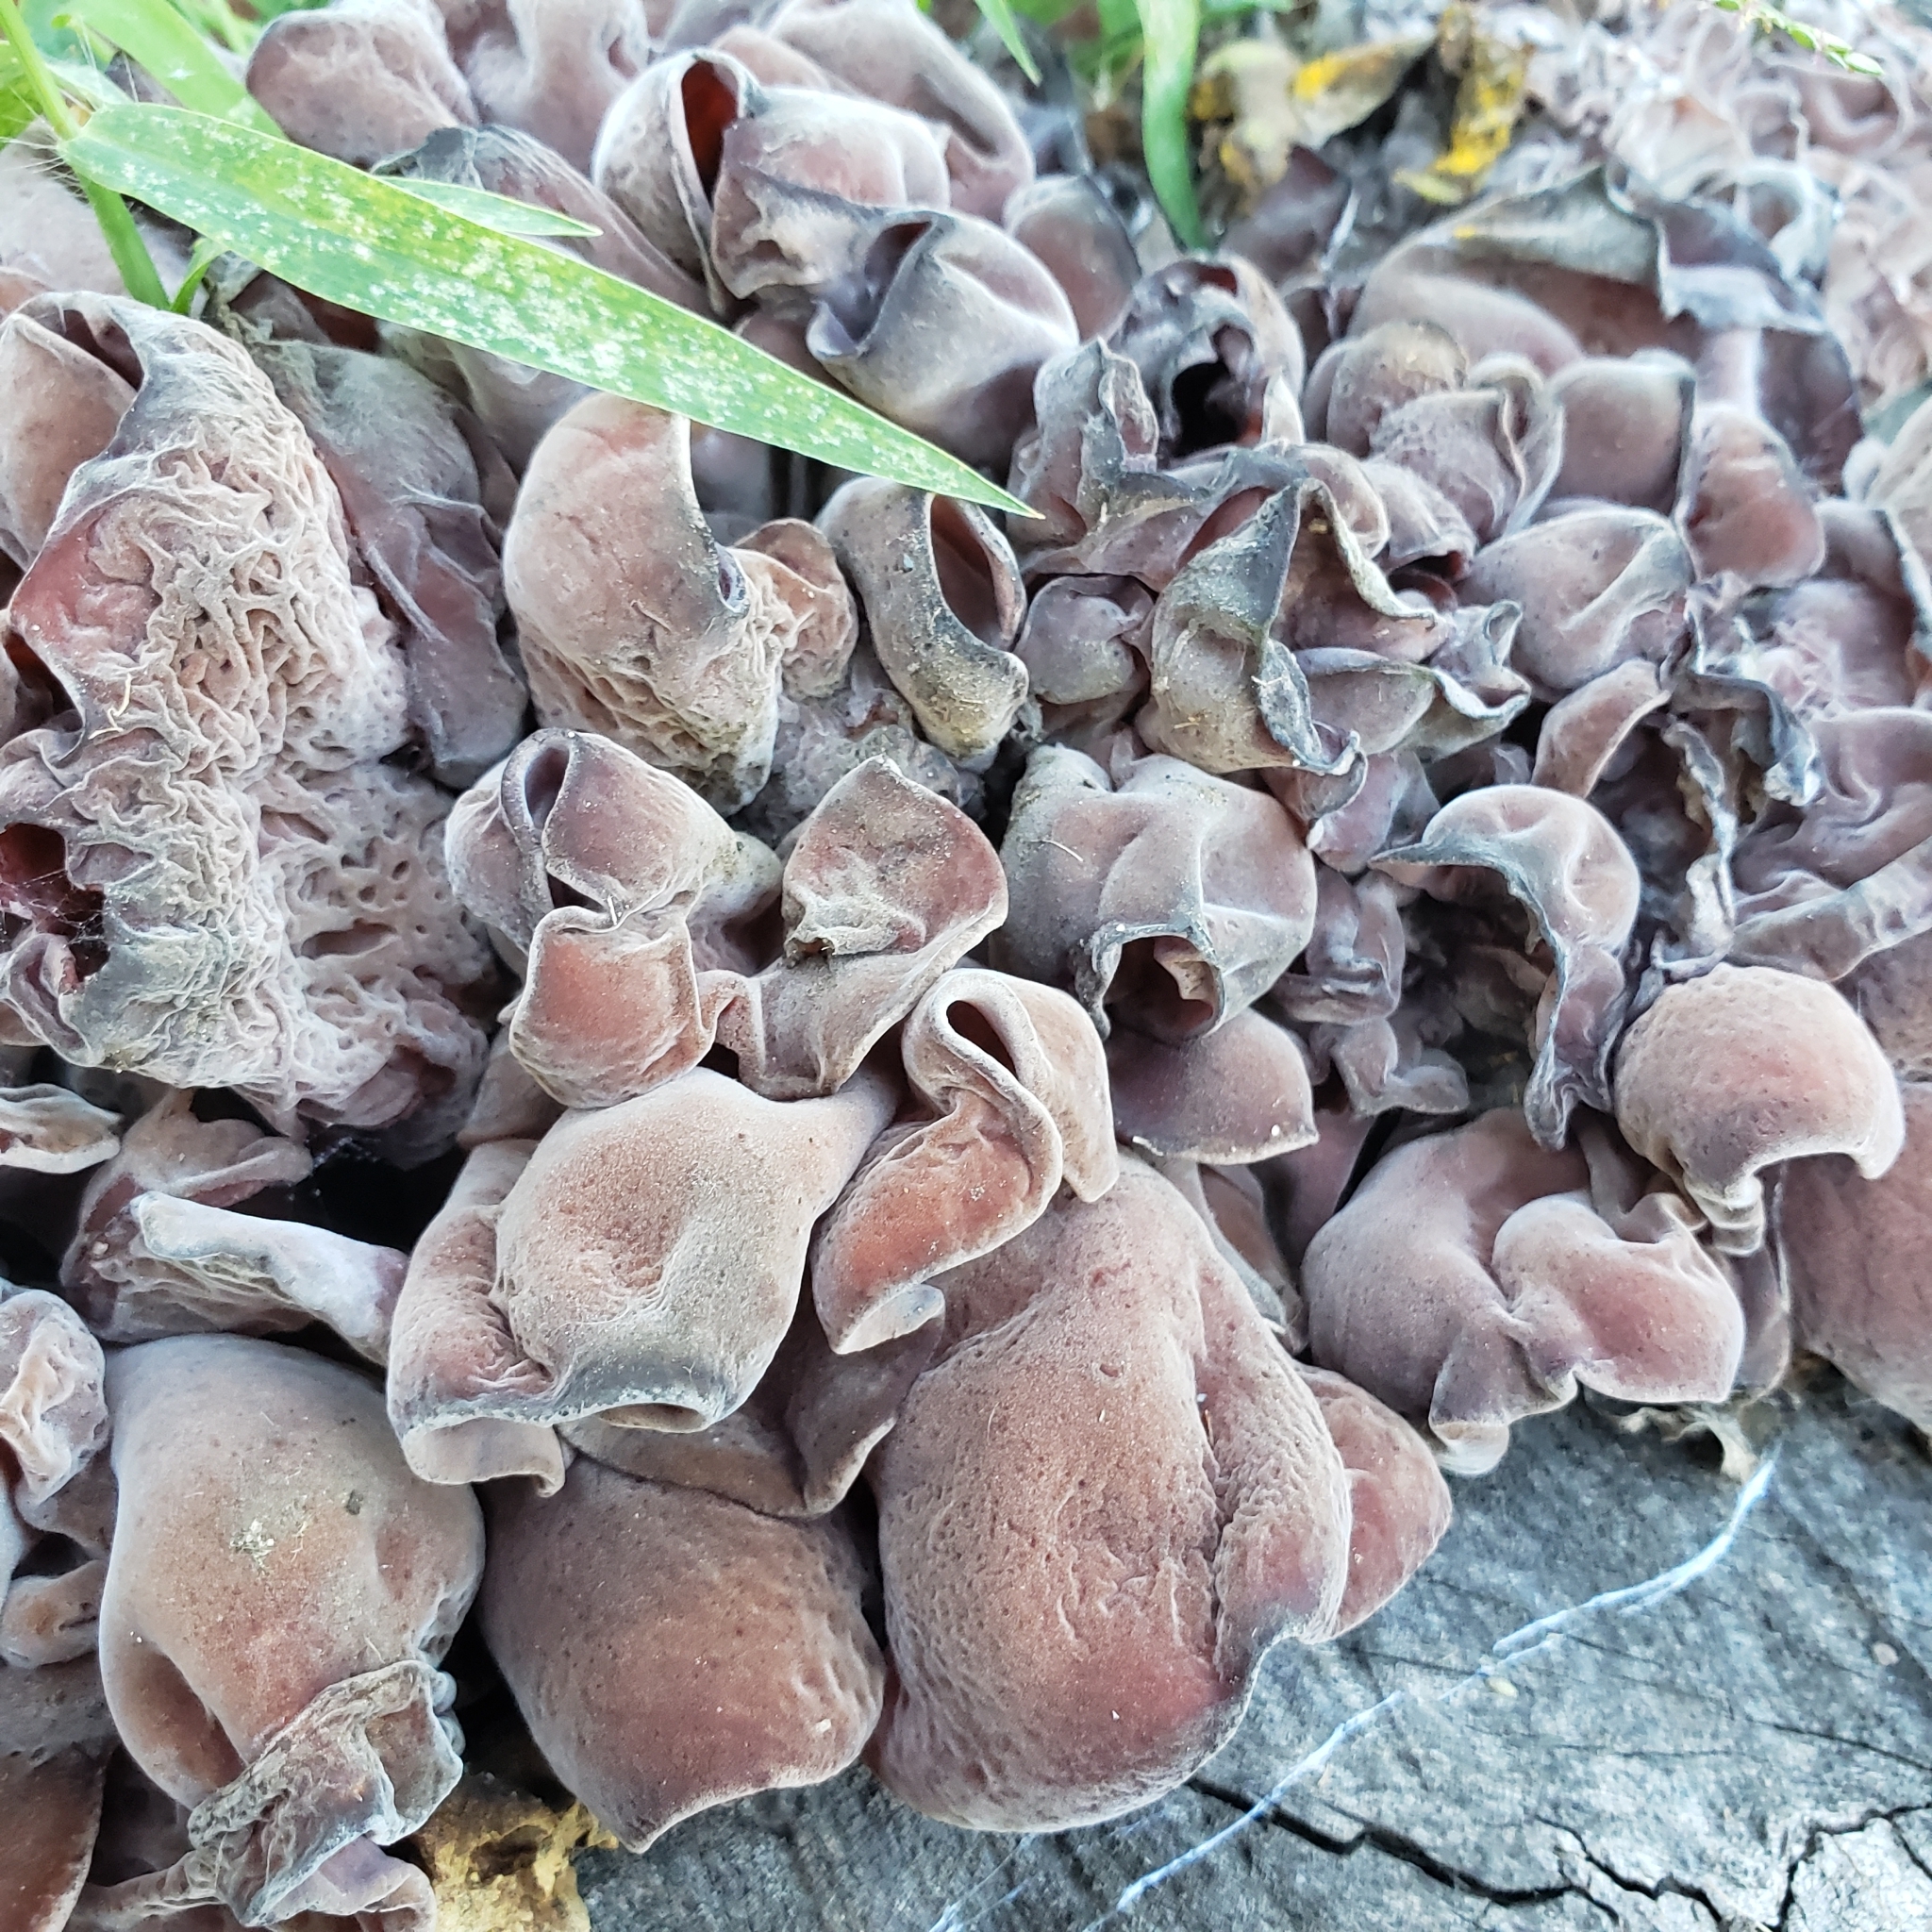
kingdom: Fungi
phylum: Basidiomycota
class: Agaricomycetes
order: Auriculariales
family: Auriculariaceae
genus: Auricularia
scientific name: Auricularia americana
